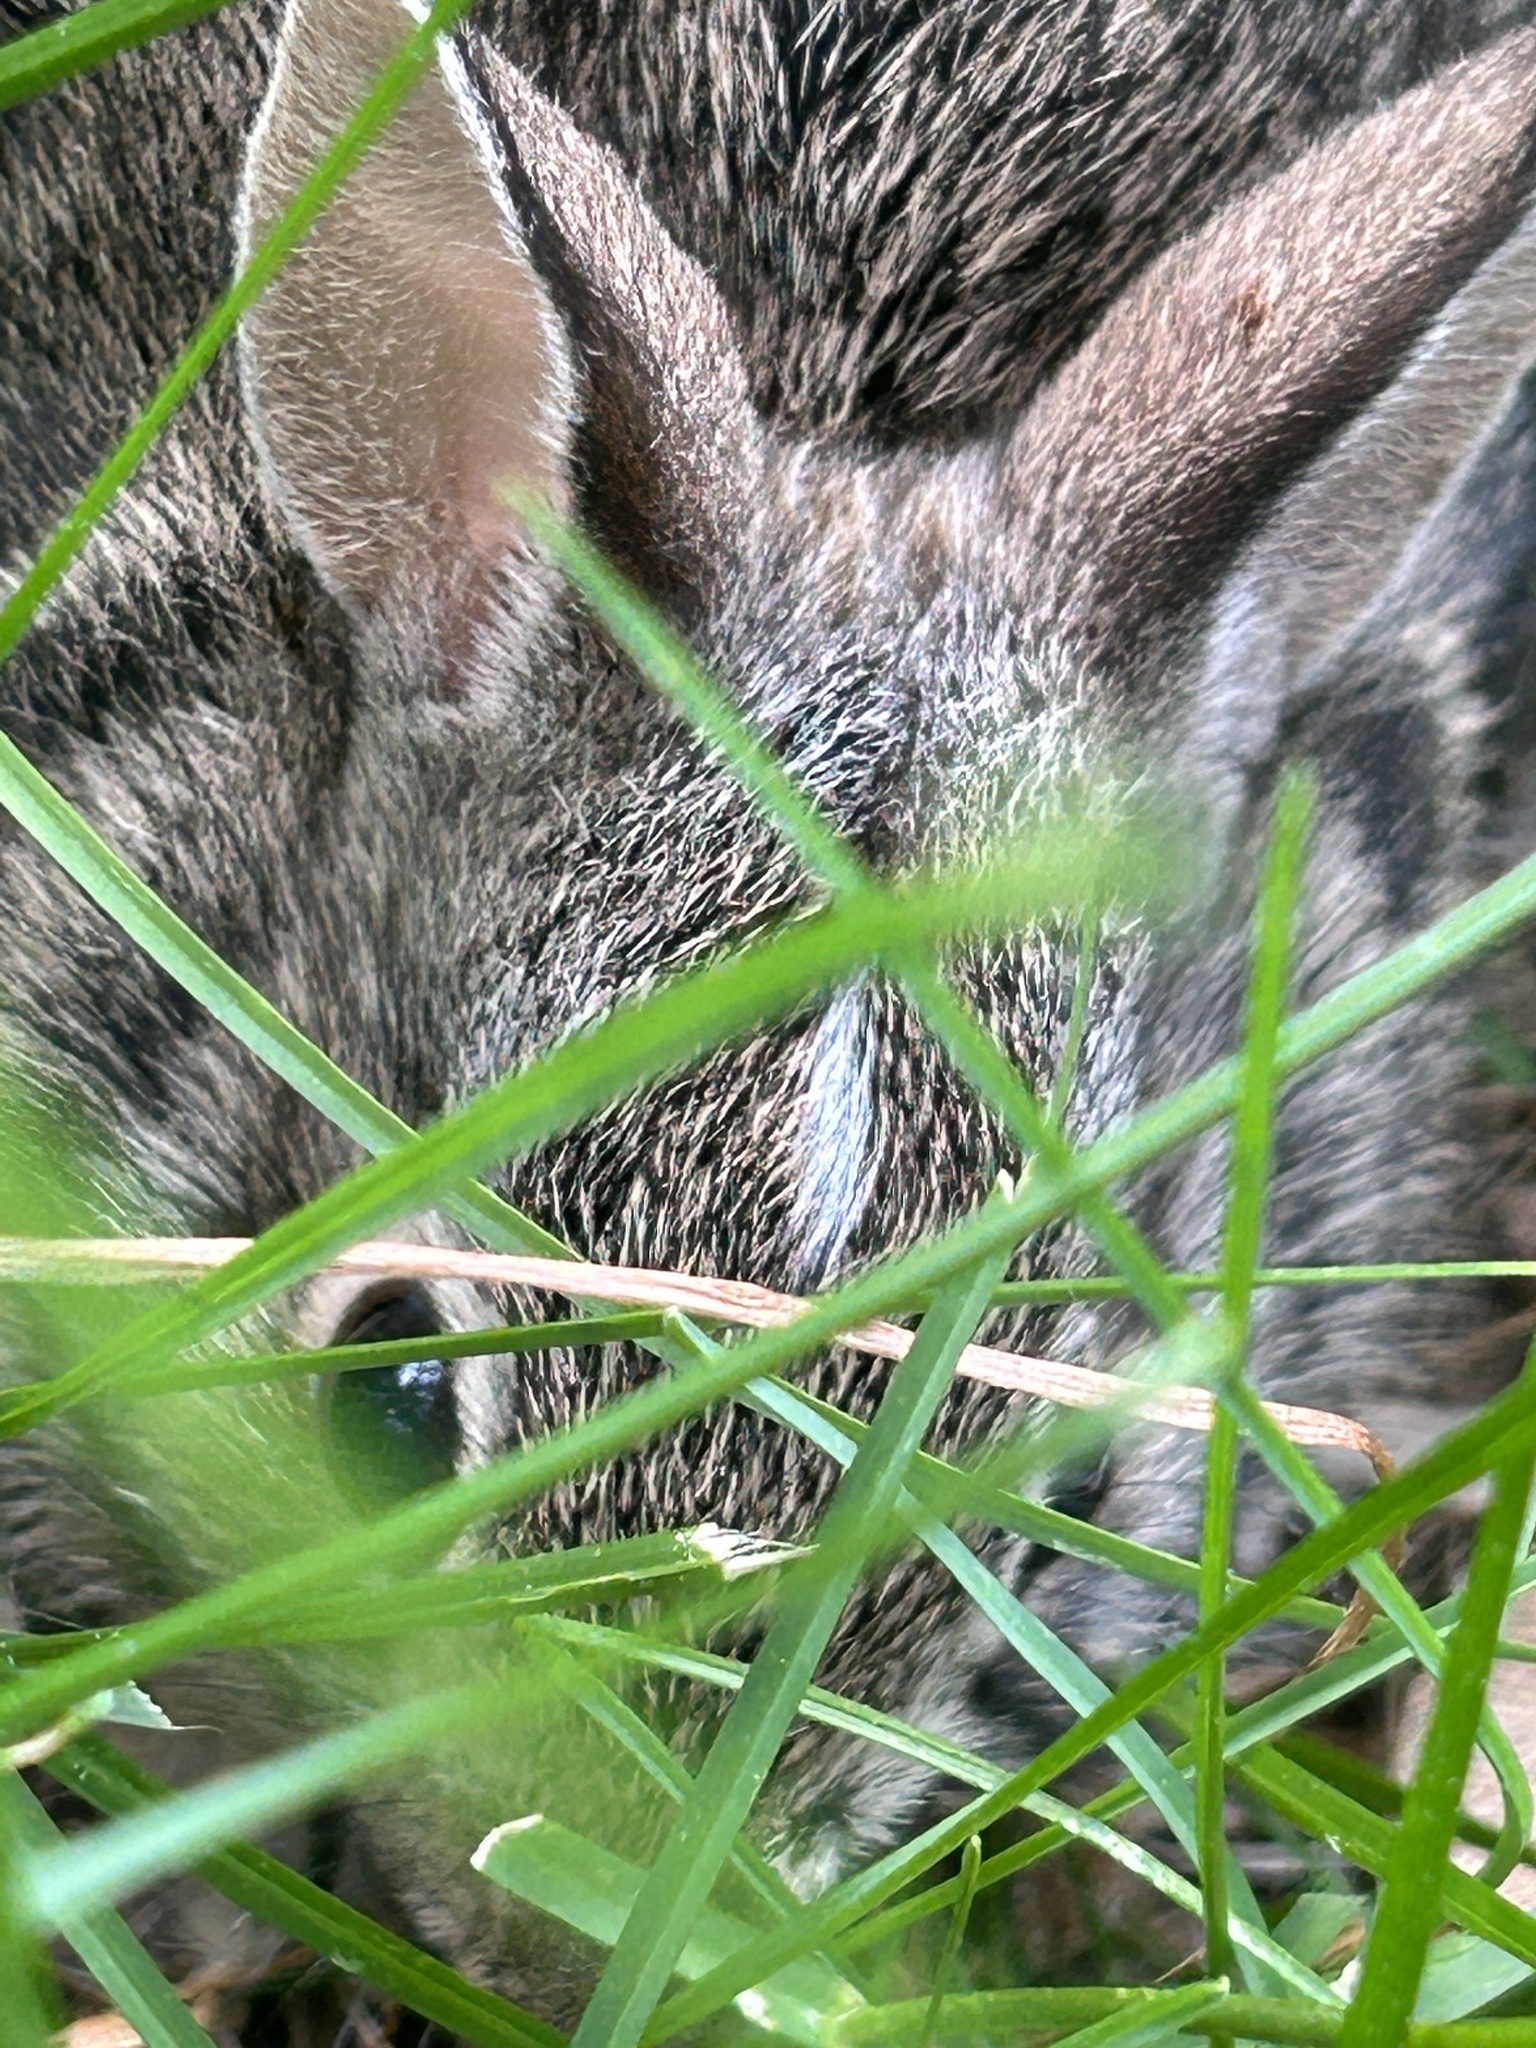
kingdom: Animalia
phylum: Chordata
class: Mammalia
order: Lagomorpha
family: Leporidae
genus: Sylvilagus
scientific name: Sylvilagus floridanus
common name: Eastern cottontail
